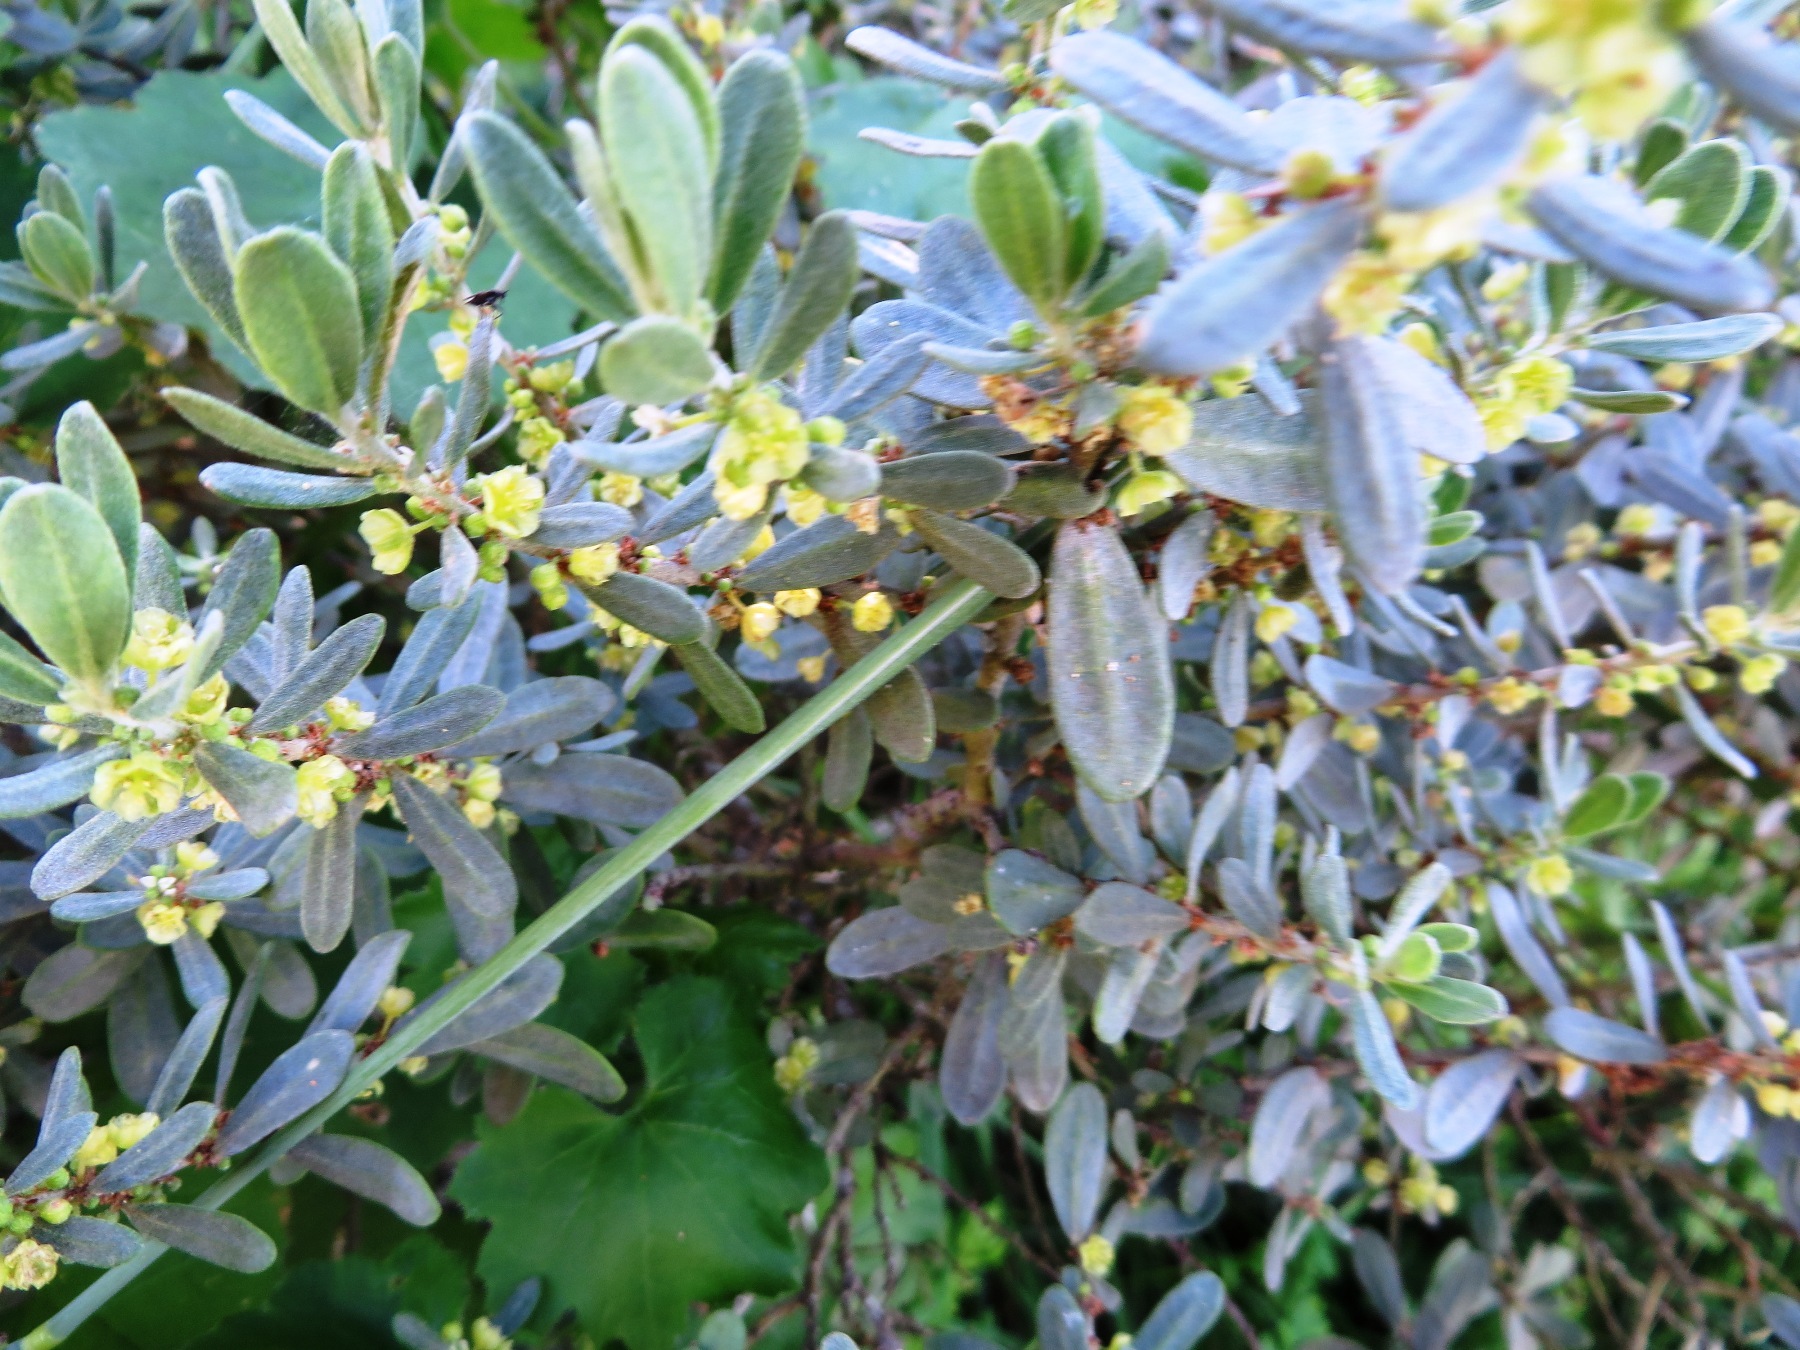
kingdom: Plantae
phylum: Tracheophyta
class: Magnoliopsida
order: Malpighiales
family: Peraceae
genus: Clutia
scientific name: Clutia daphnoides
